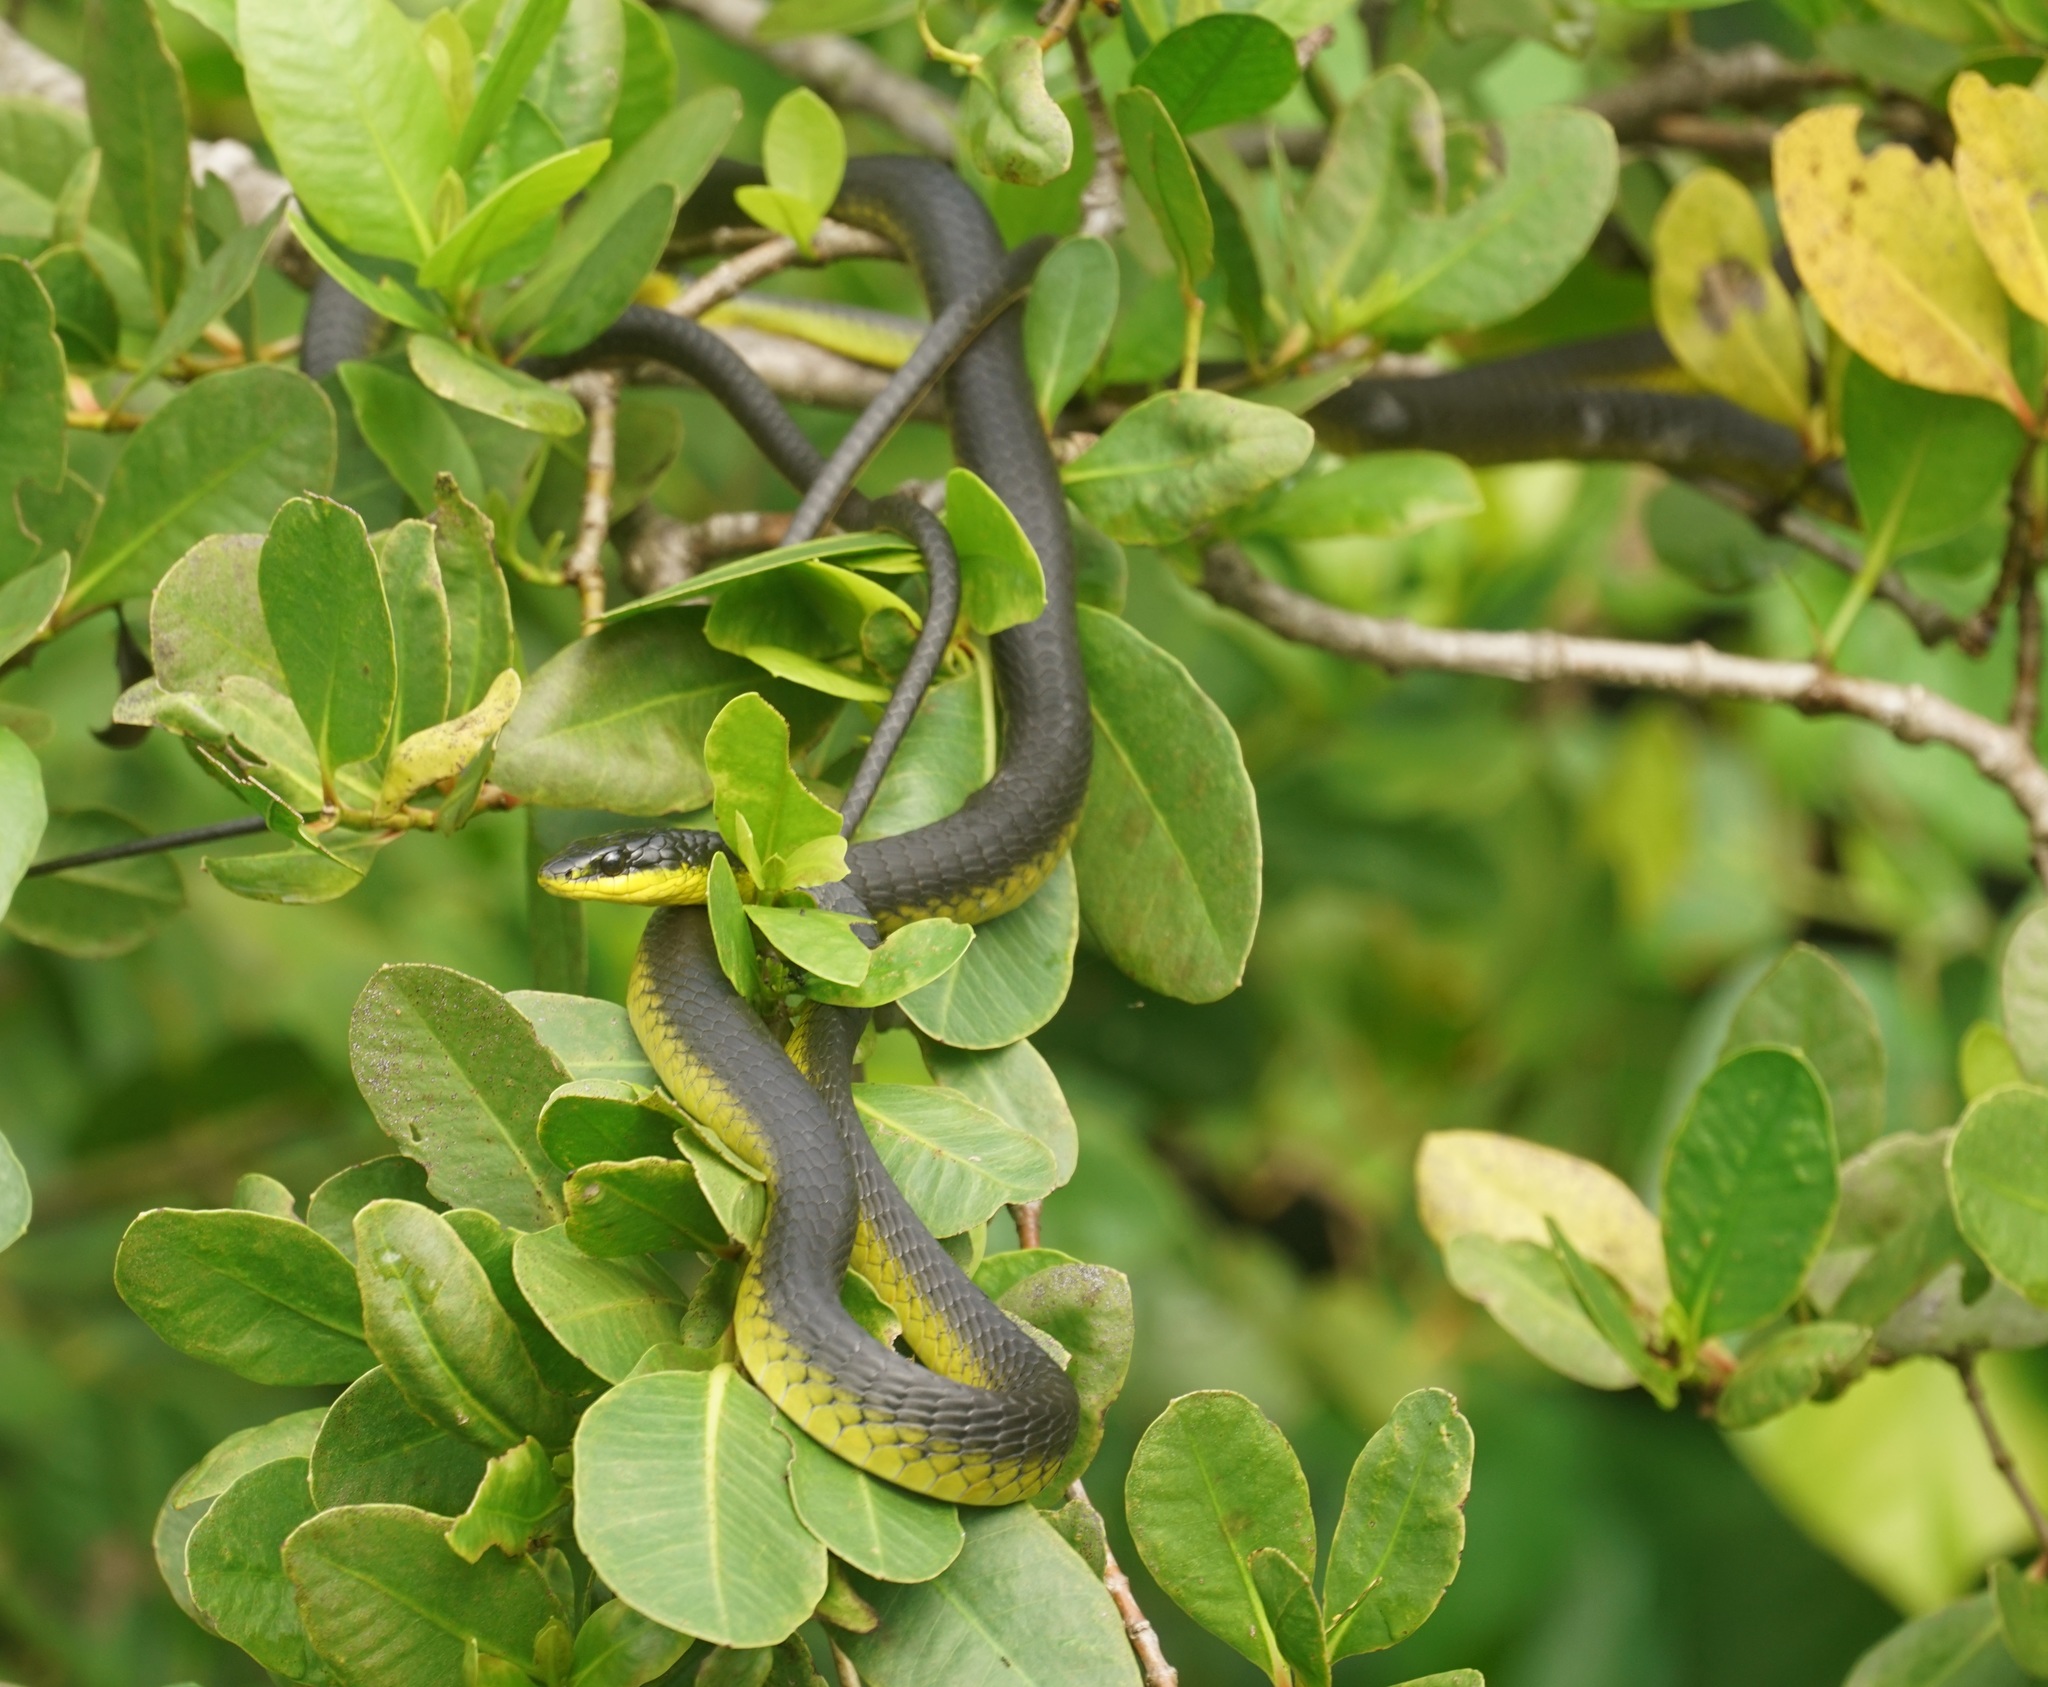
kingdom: Animalia
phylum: Chordata
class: Squamata
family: Colubridae
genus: Dendrelaphis
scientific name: Dendrelaphis punctulatus
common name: Common tree snake
